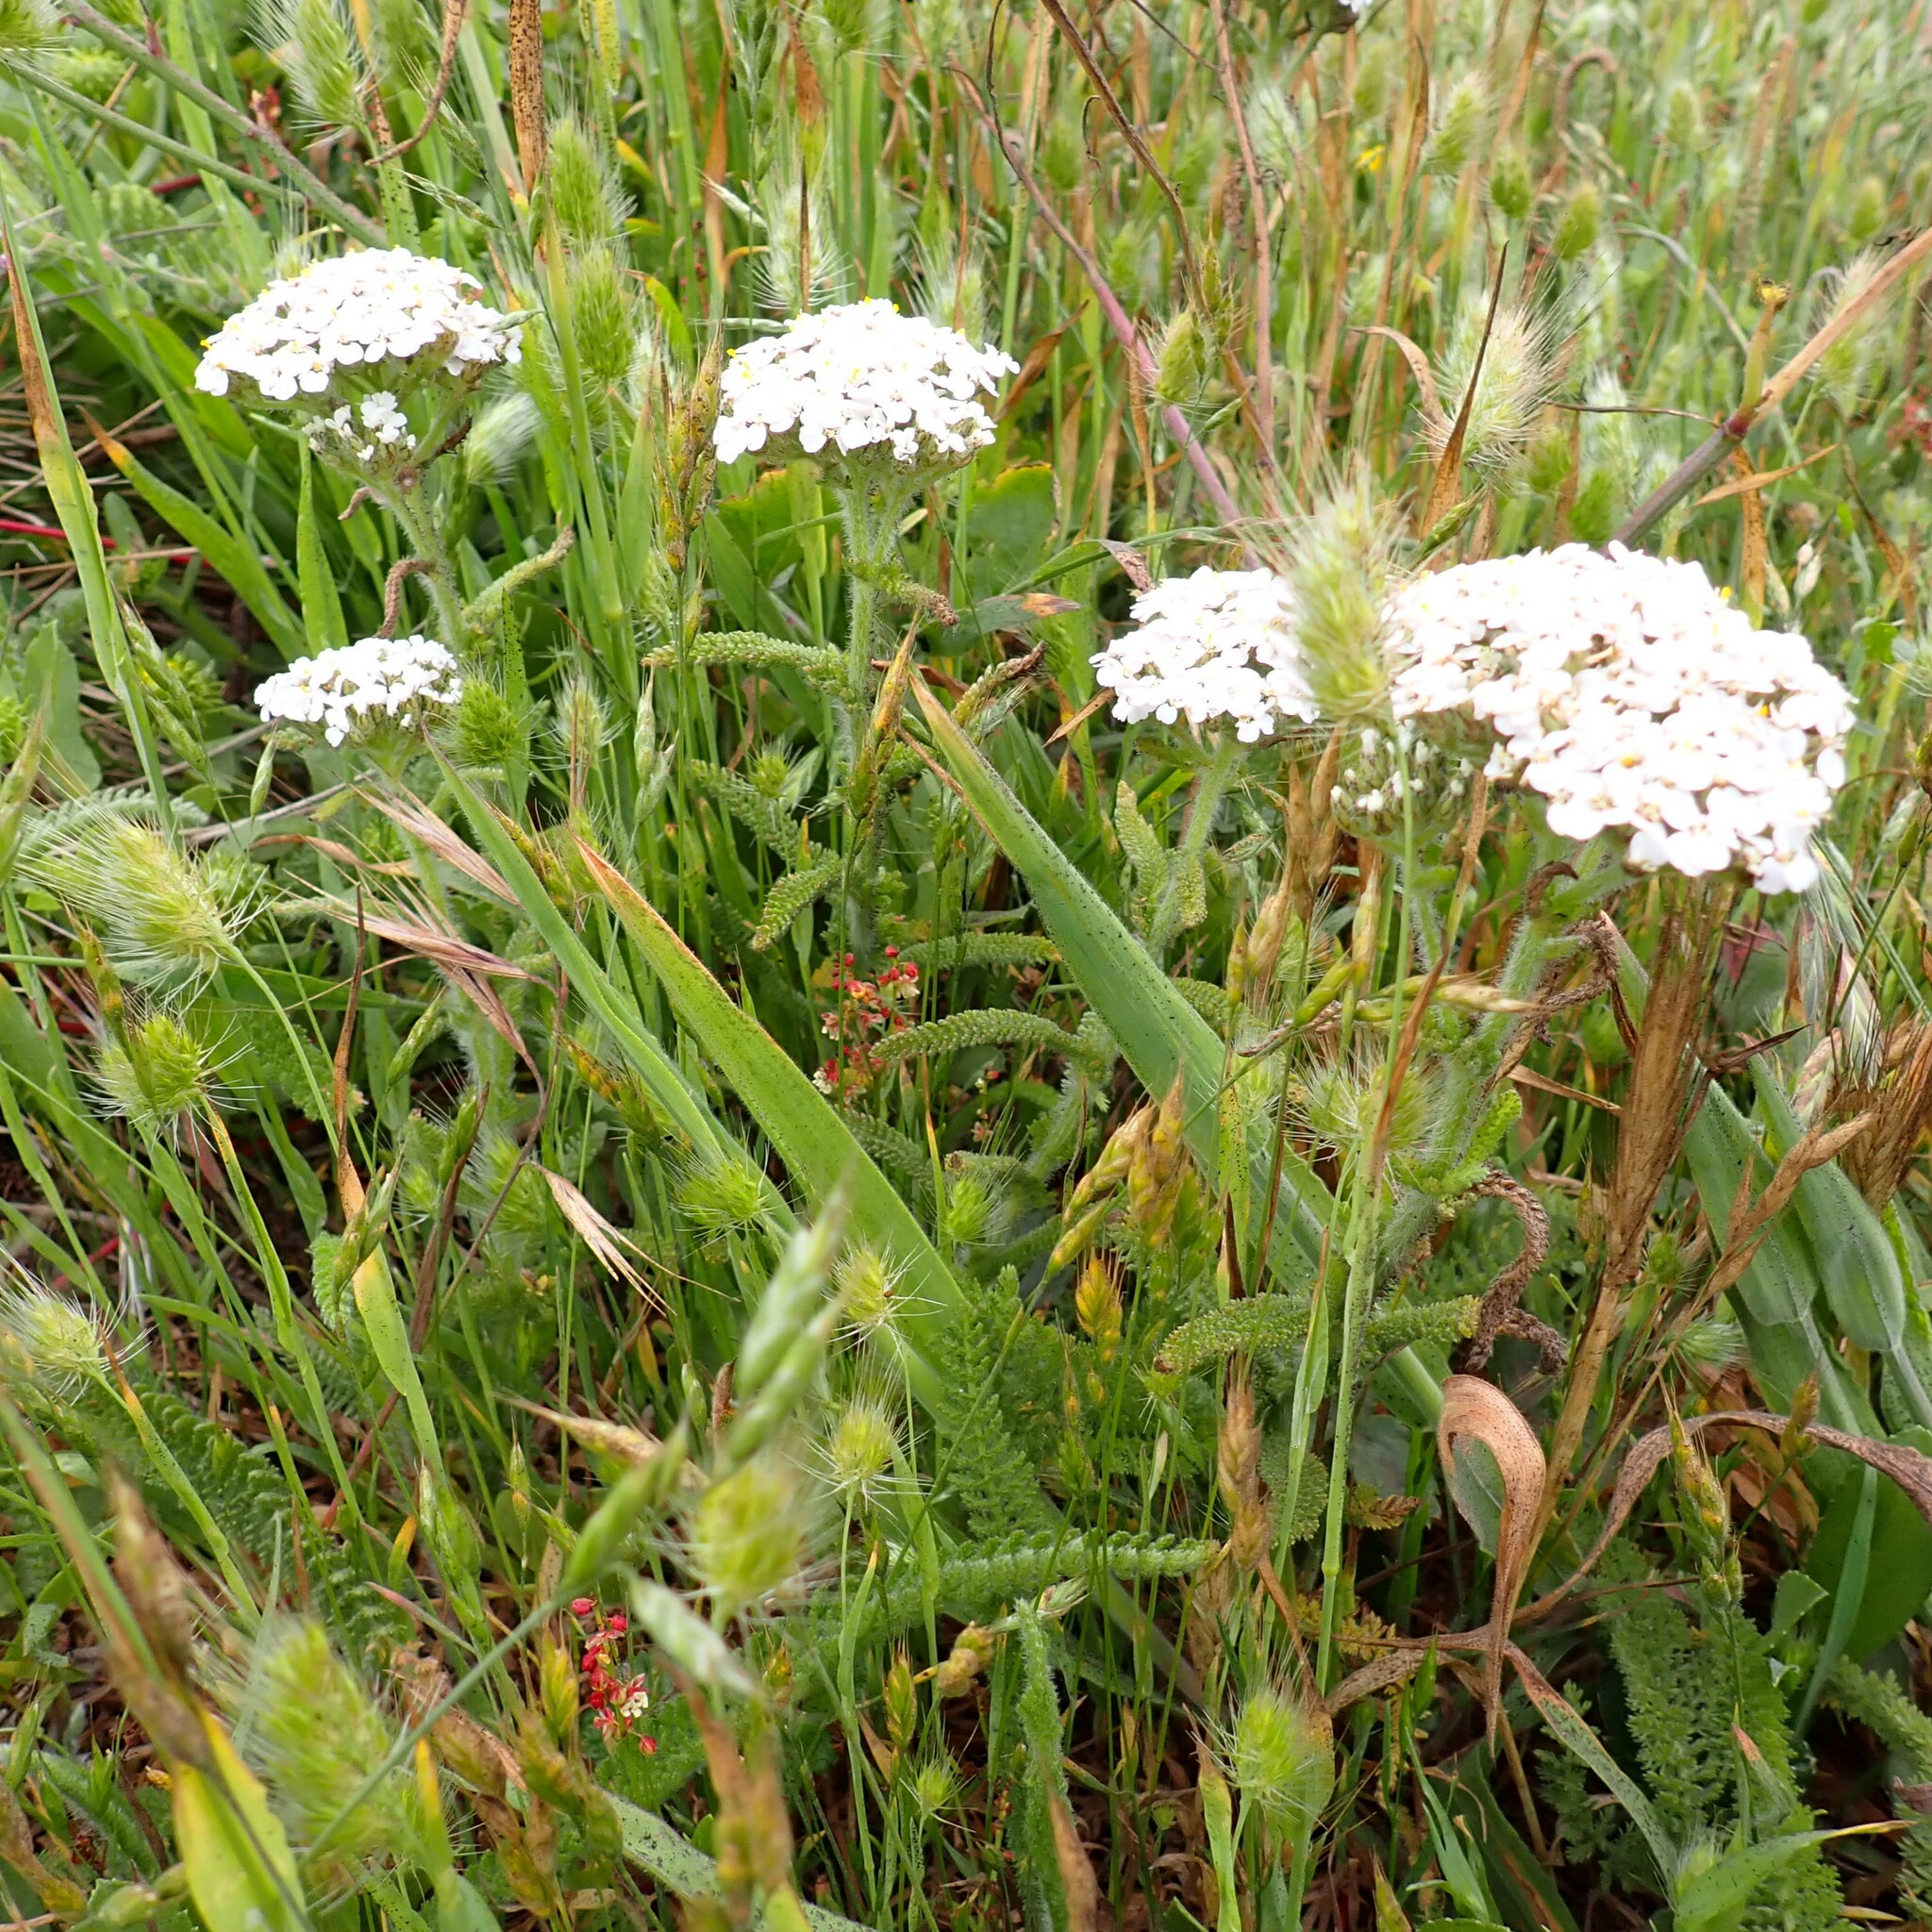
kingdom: Plantae
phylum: Tracheophyta
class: Magnoliopsida
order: Asterales
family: Asteraceae
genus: Achillea
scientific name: Achillea millefolium
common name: Yarrow
